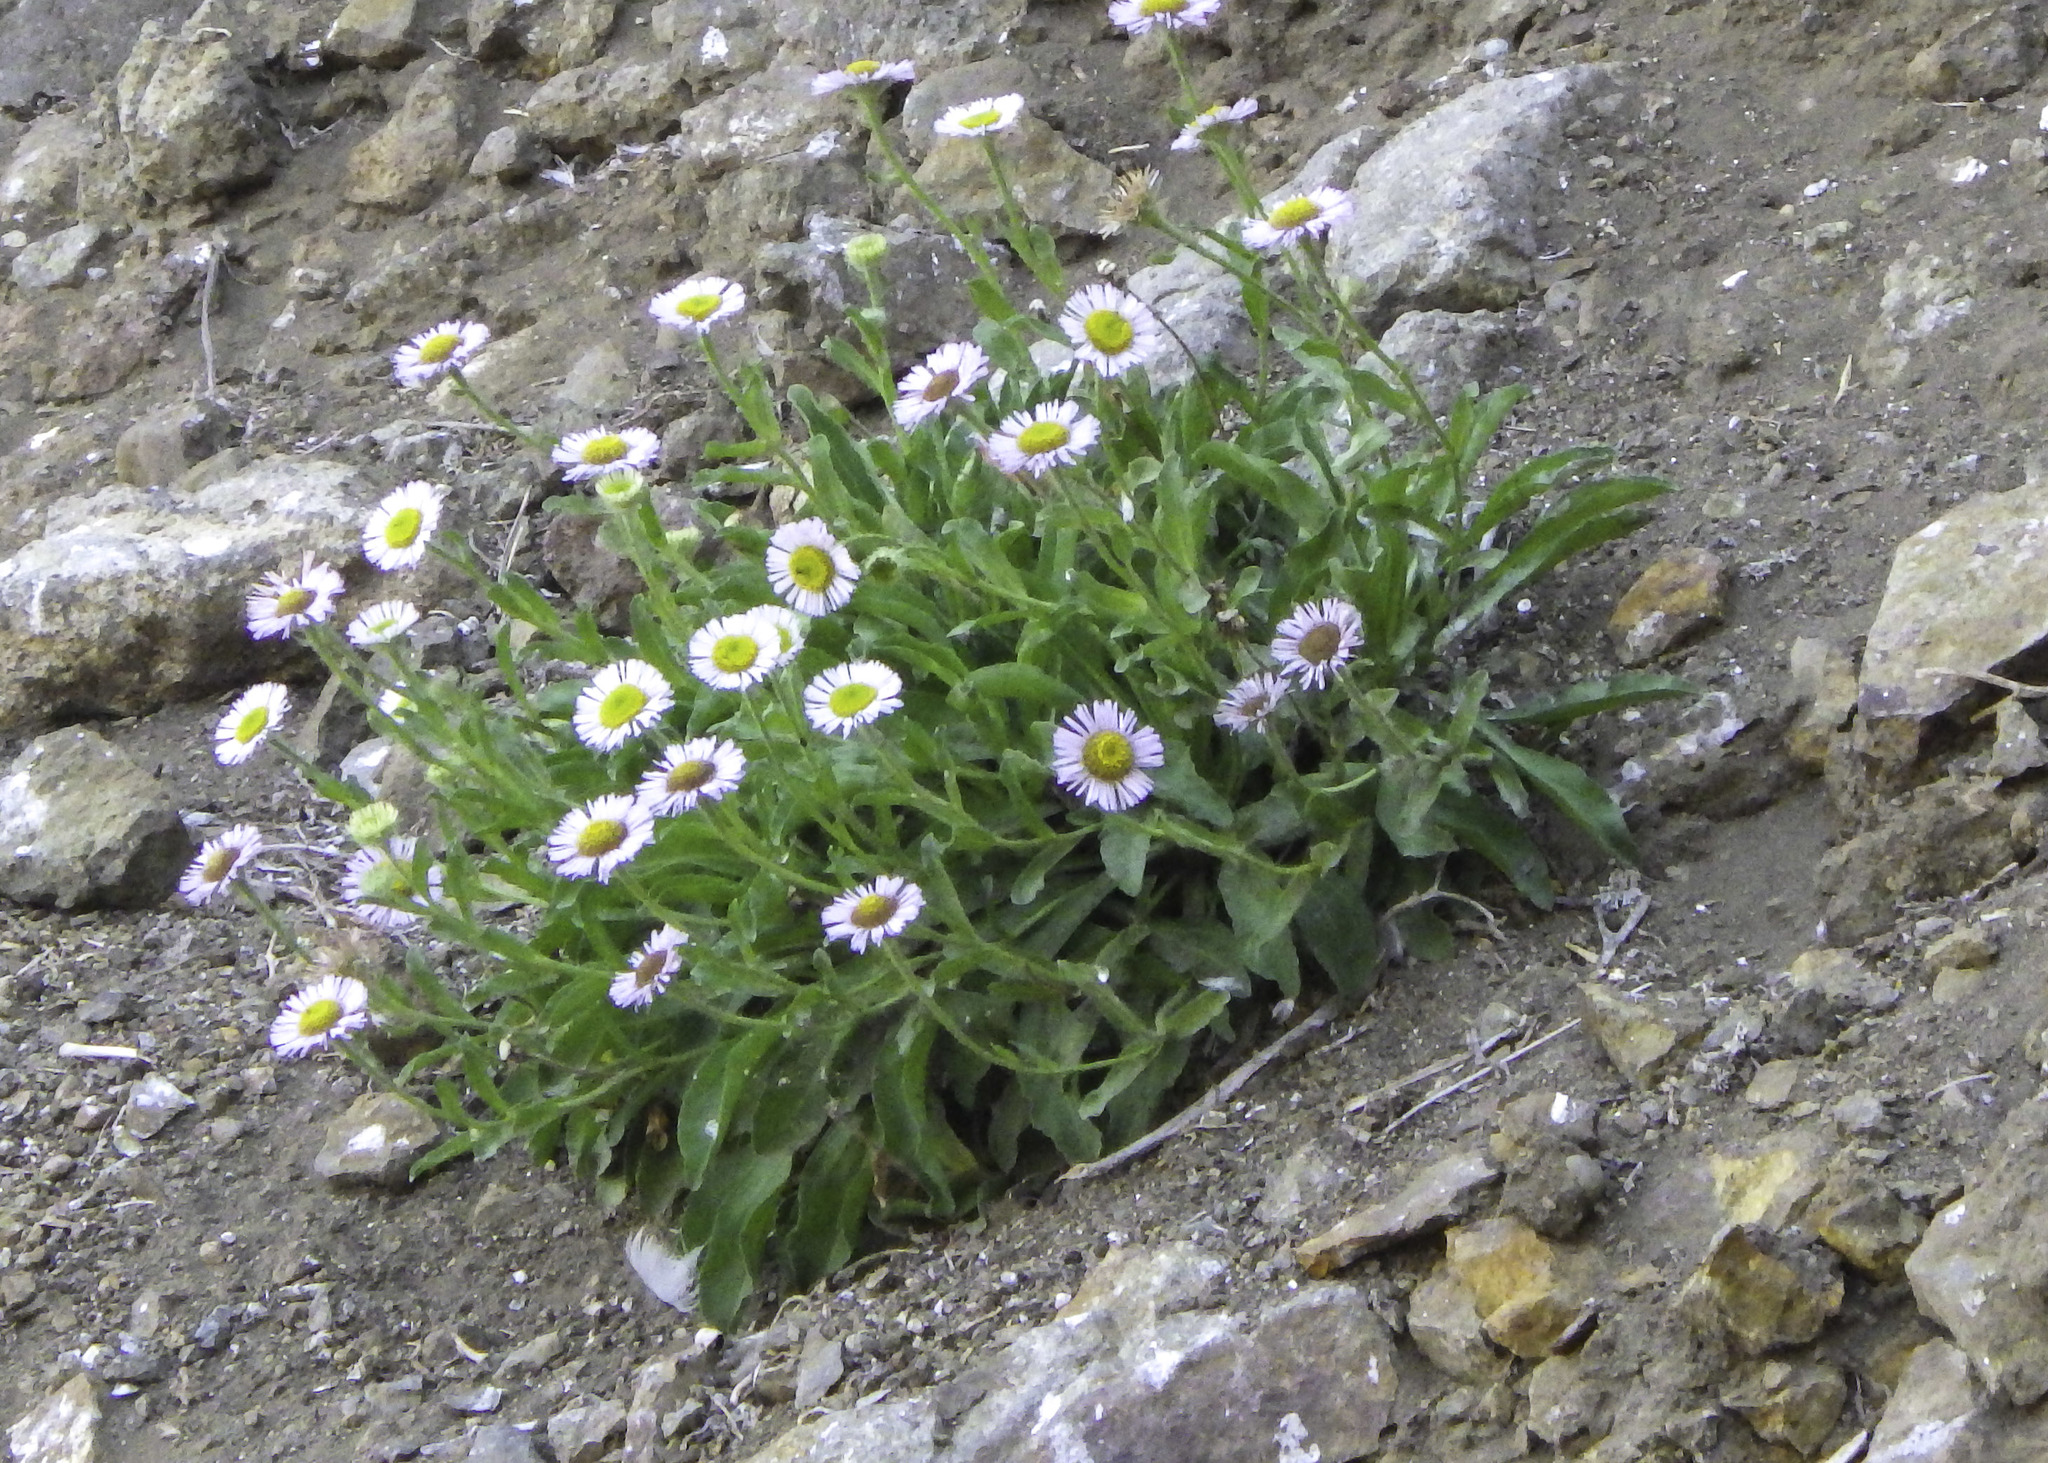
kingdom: Plantae
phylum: Tracheophyta
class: Magnoliopsida
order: Asterales
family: Asteraceae
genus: Erigeron
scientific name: Erigeron glaucus
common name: Seaside daisy
